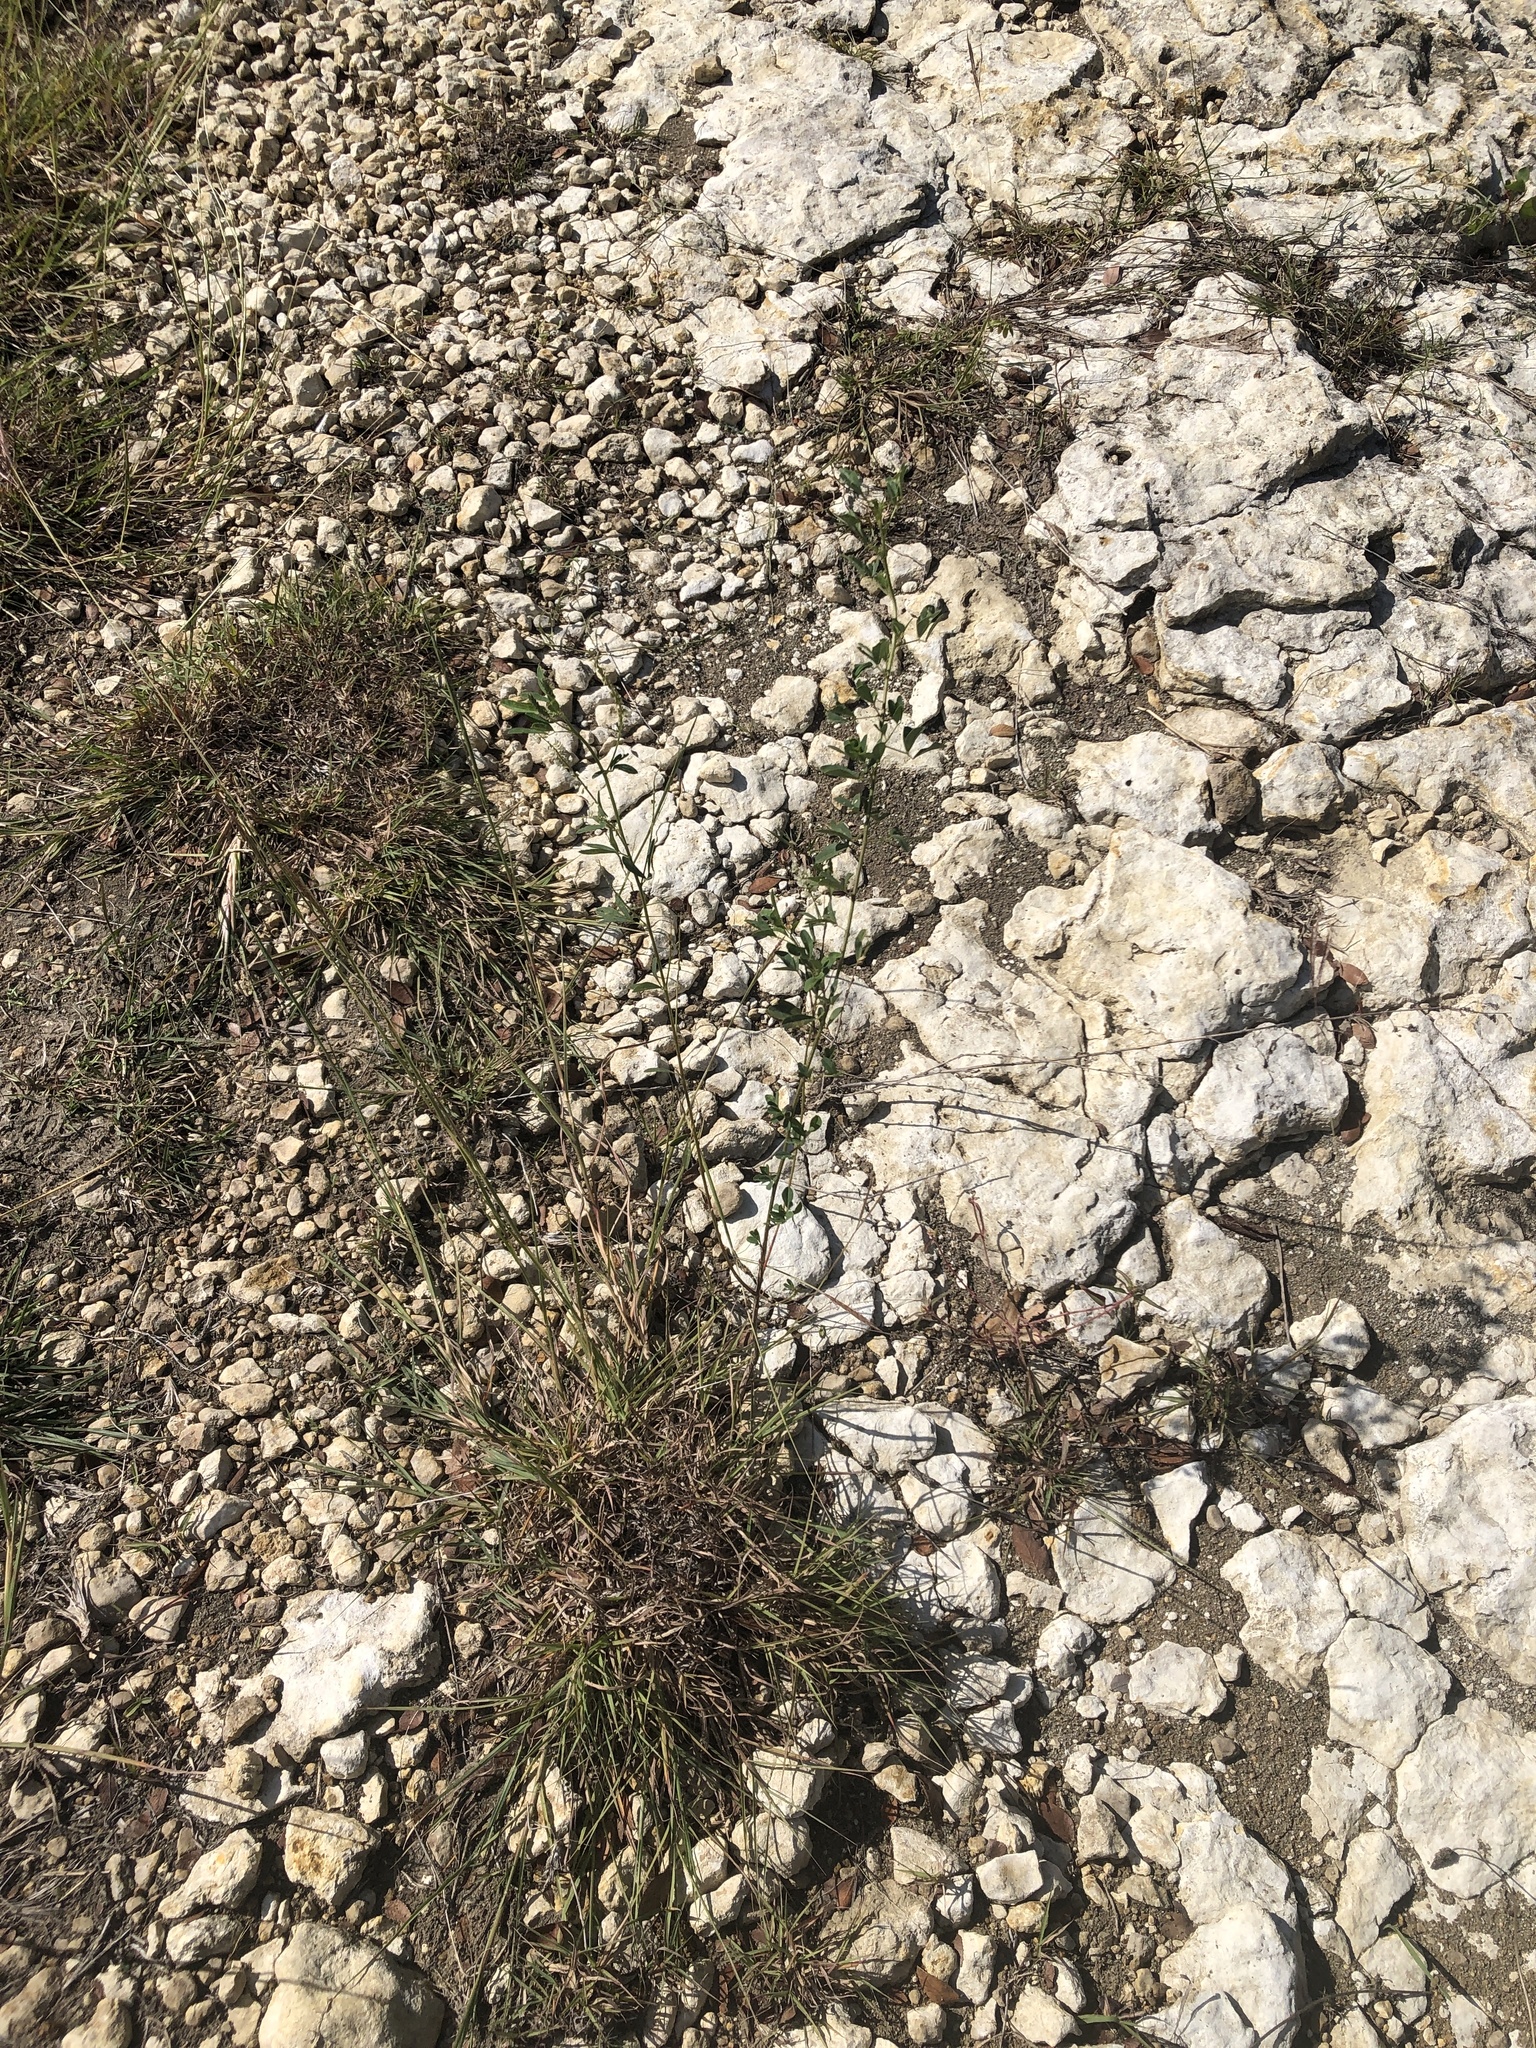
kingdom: Plantae
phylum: Tracheophyta
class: Magnoliopsida
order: Fabales
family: Fabaceae
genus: Melilotus
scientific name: Melilotus albus
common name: White melilot
